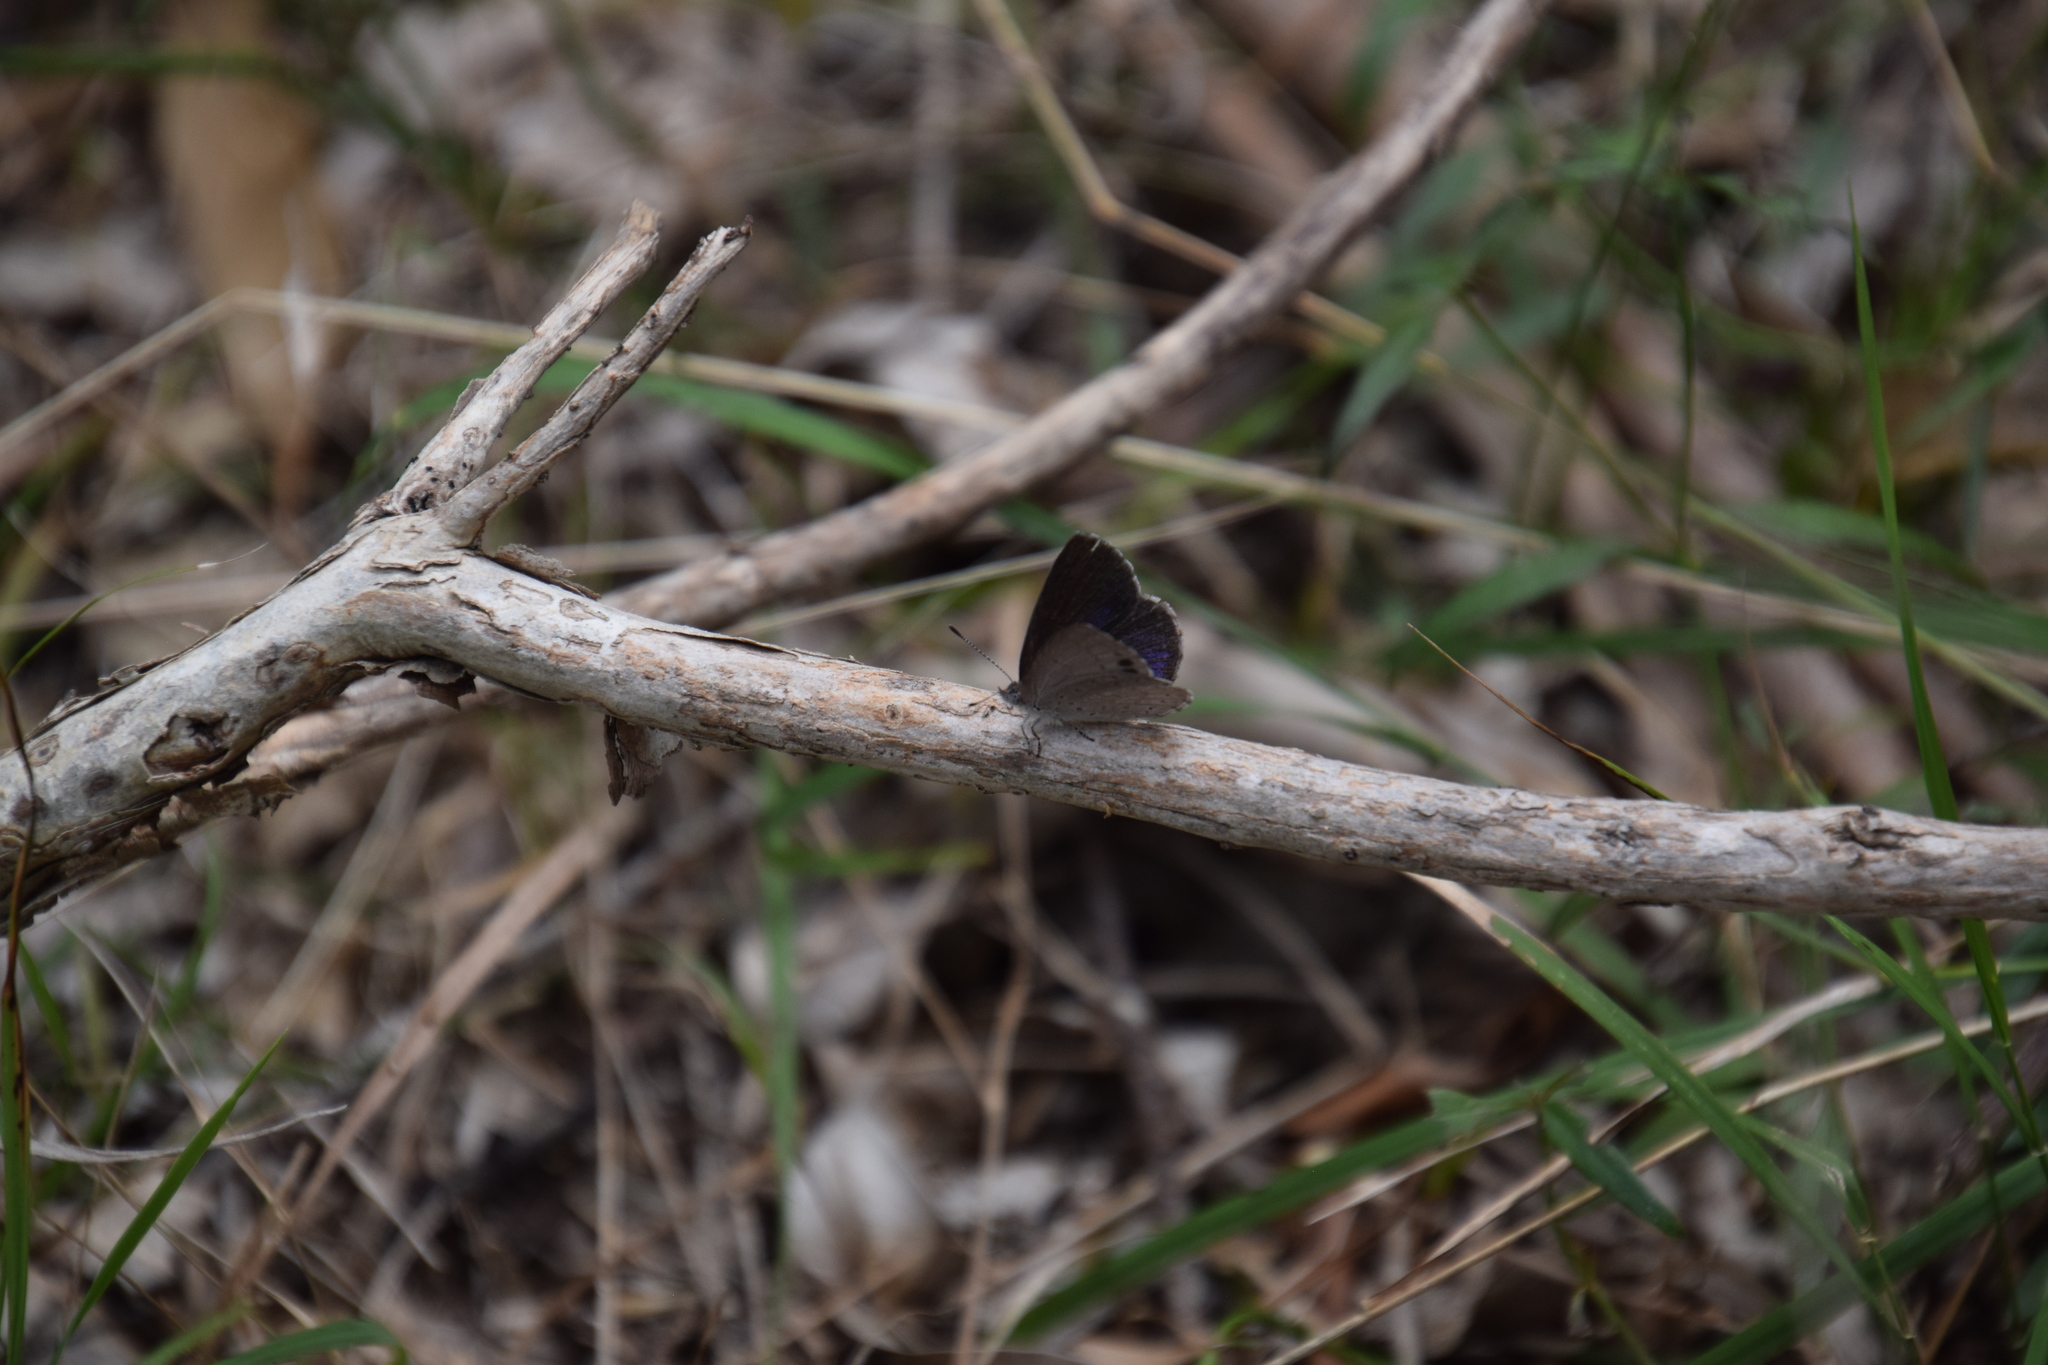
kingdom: Animalia
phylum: Arthropoda
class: Insecta
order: Lepidoptera
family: Lycaenidae
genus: Candalides
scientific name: Candalides
